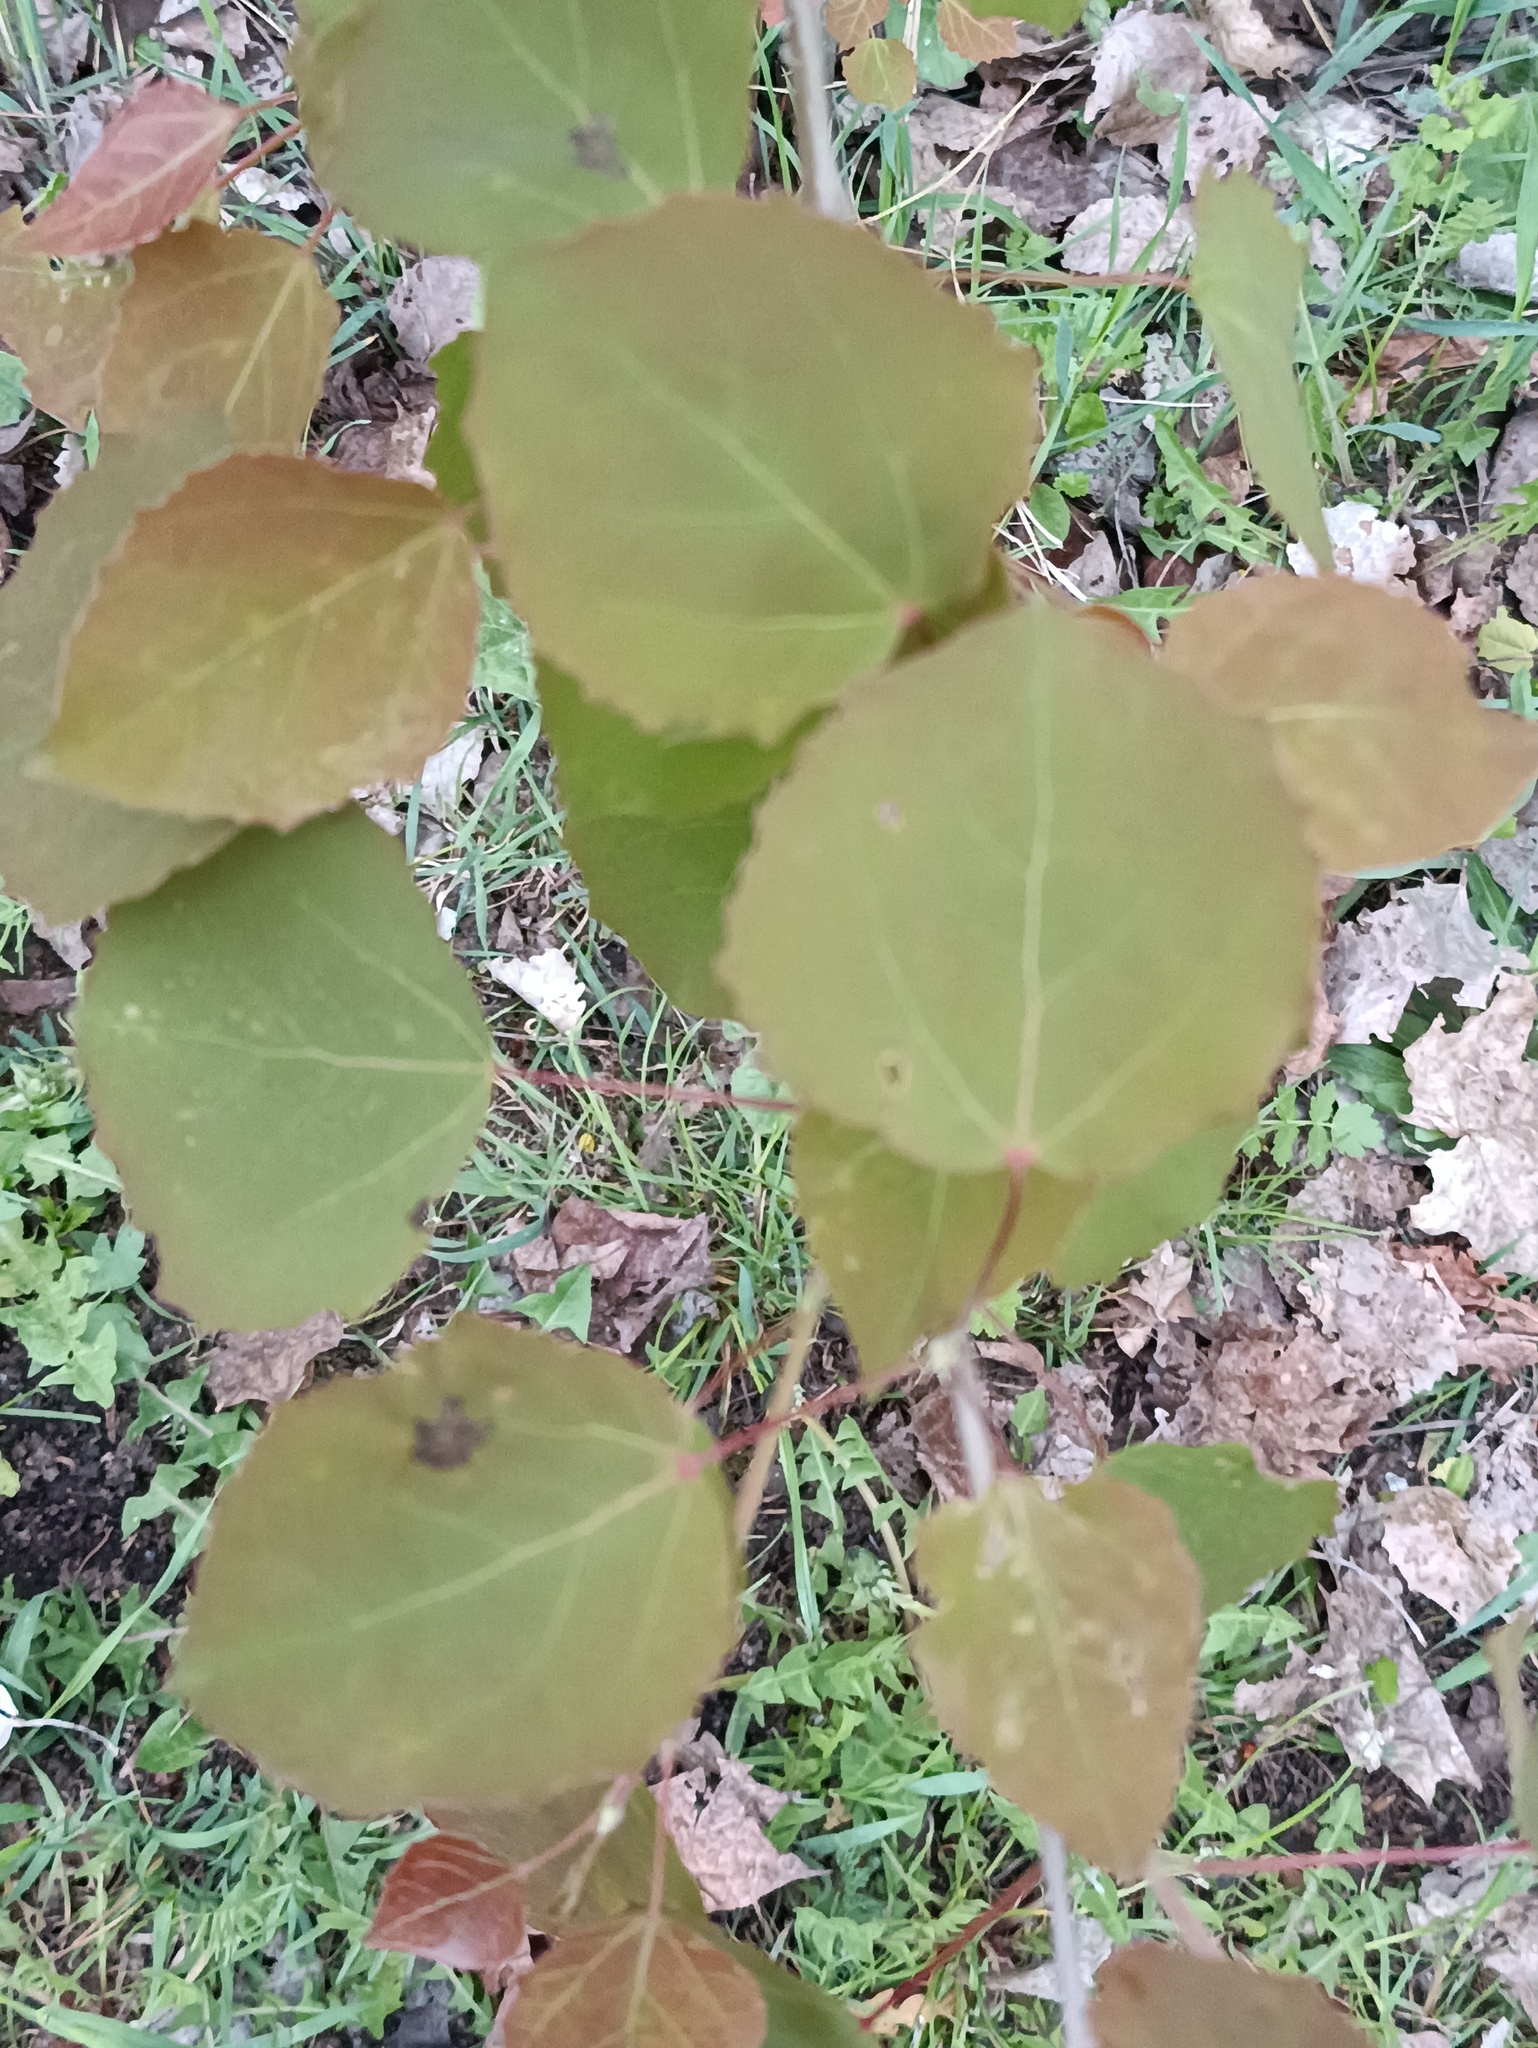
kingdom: Plantae
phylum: Tracheophyta
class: Magnoliopsida
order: Malpighiales
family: Salicaceae
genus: Populus
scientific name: Populus tremula
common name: European aspen
